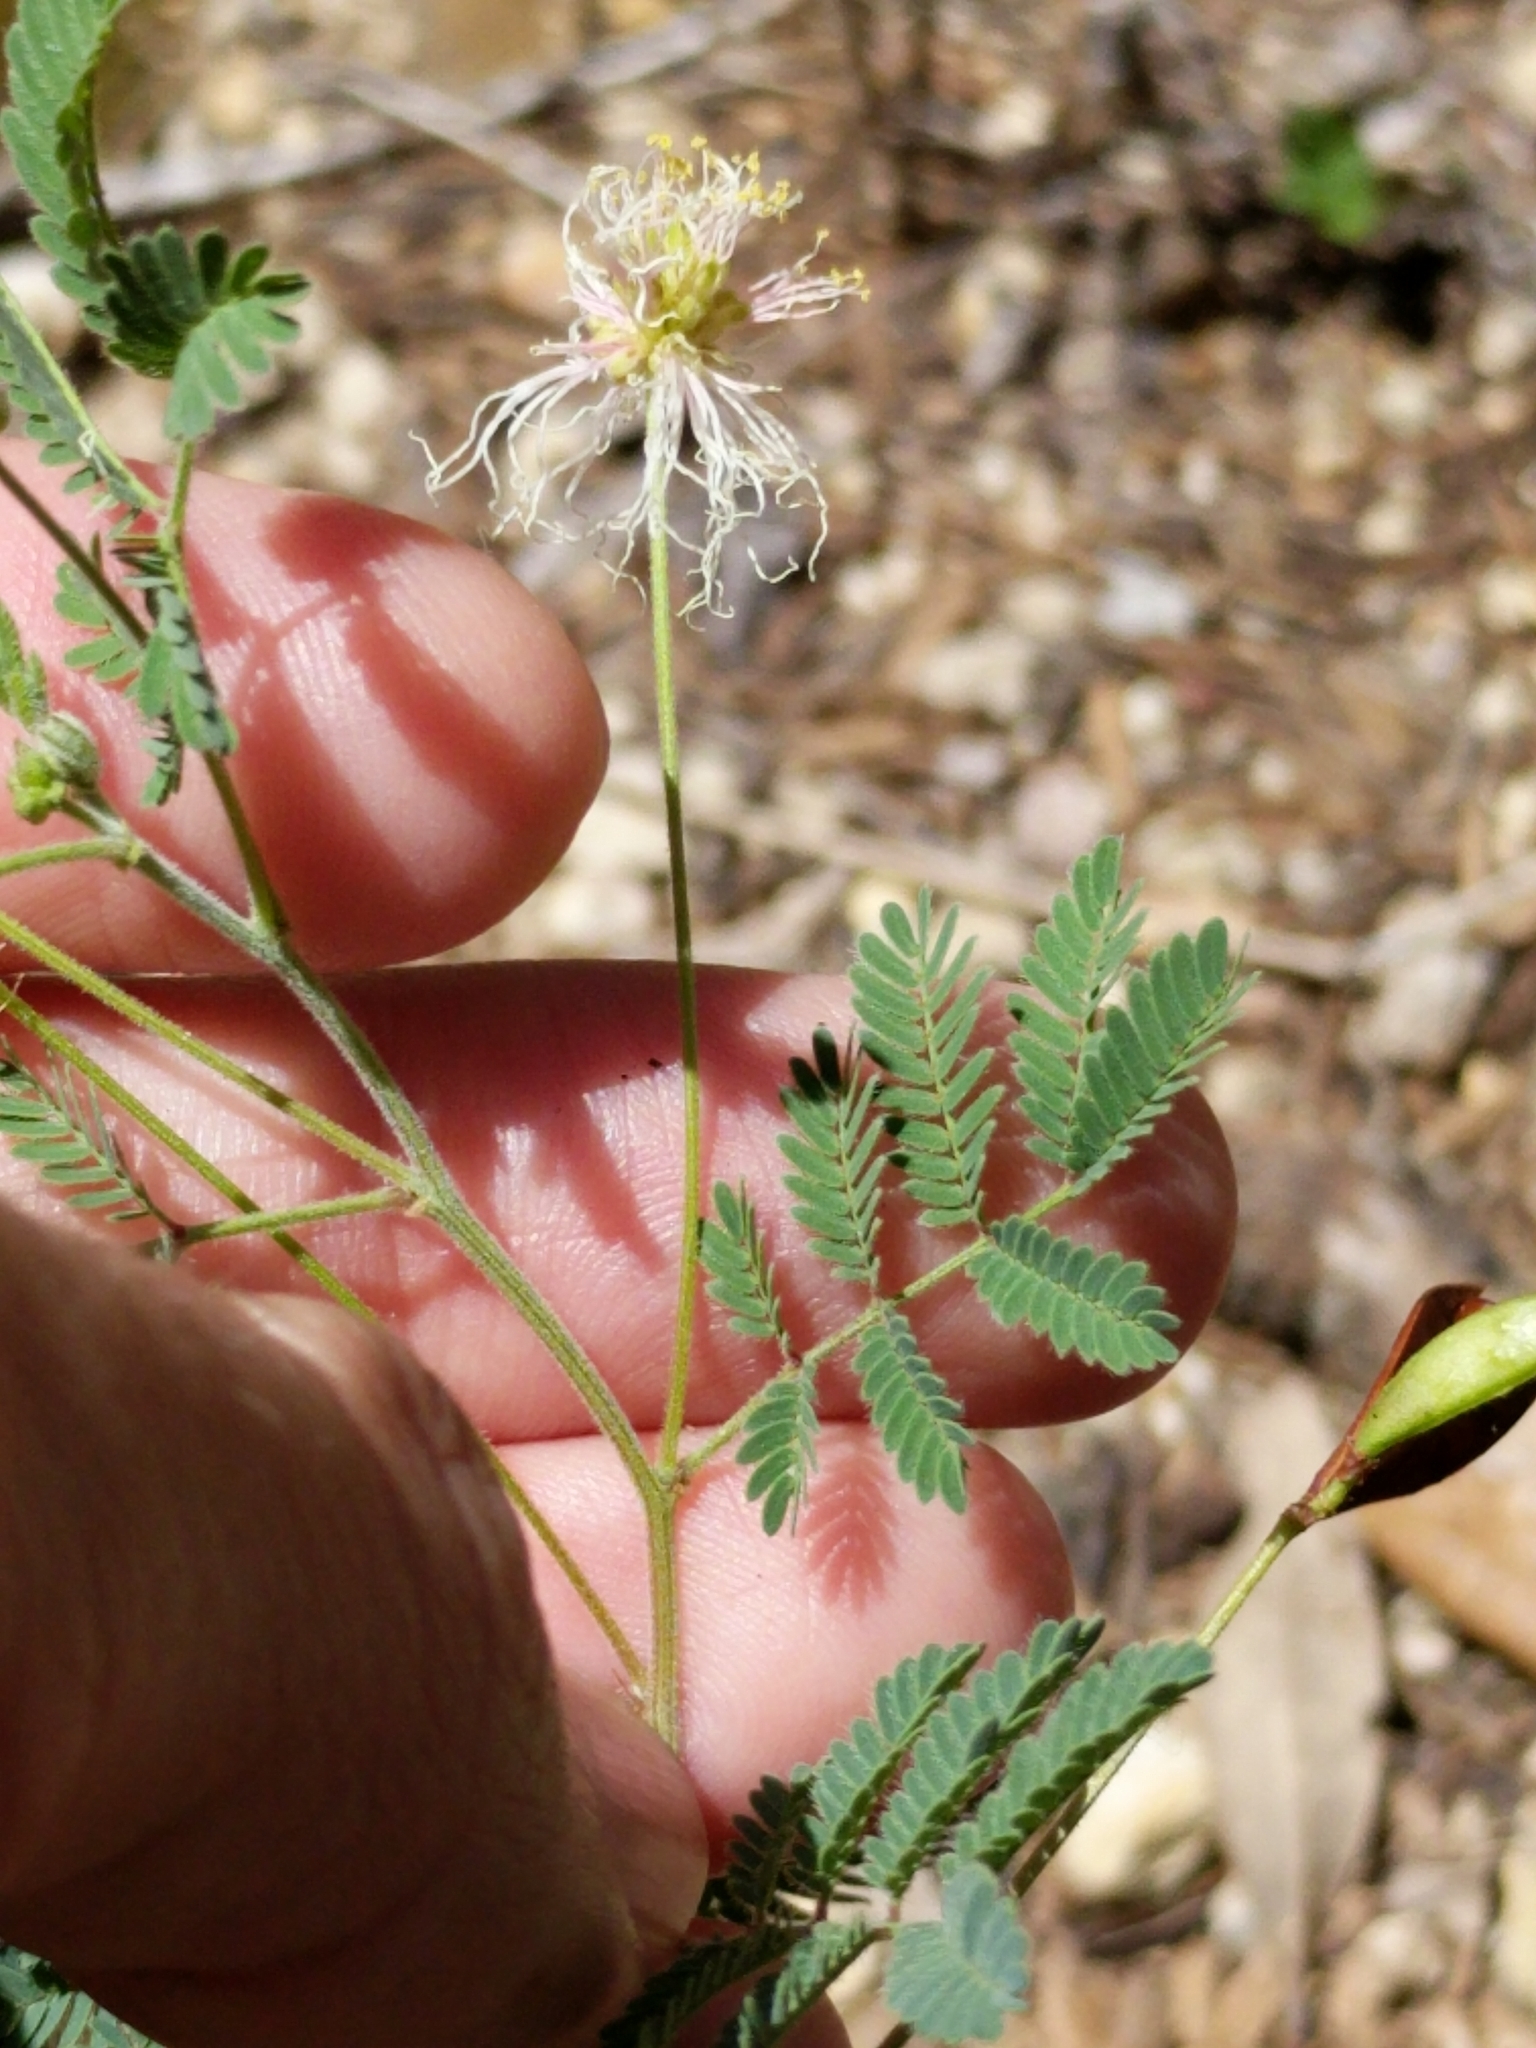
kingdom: Plantae
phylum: Tracheophyta
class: Magnoliopsida
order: Fabales
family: Fabaceae
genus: Desmanthus
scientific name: Desmanthus velutinus
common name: Velvet bundle-flower
